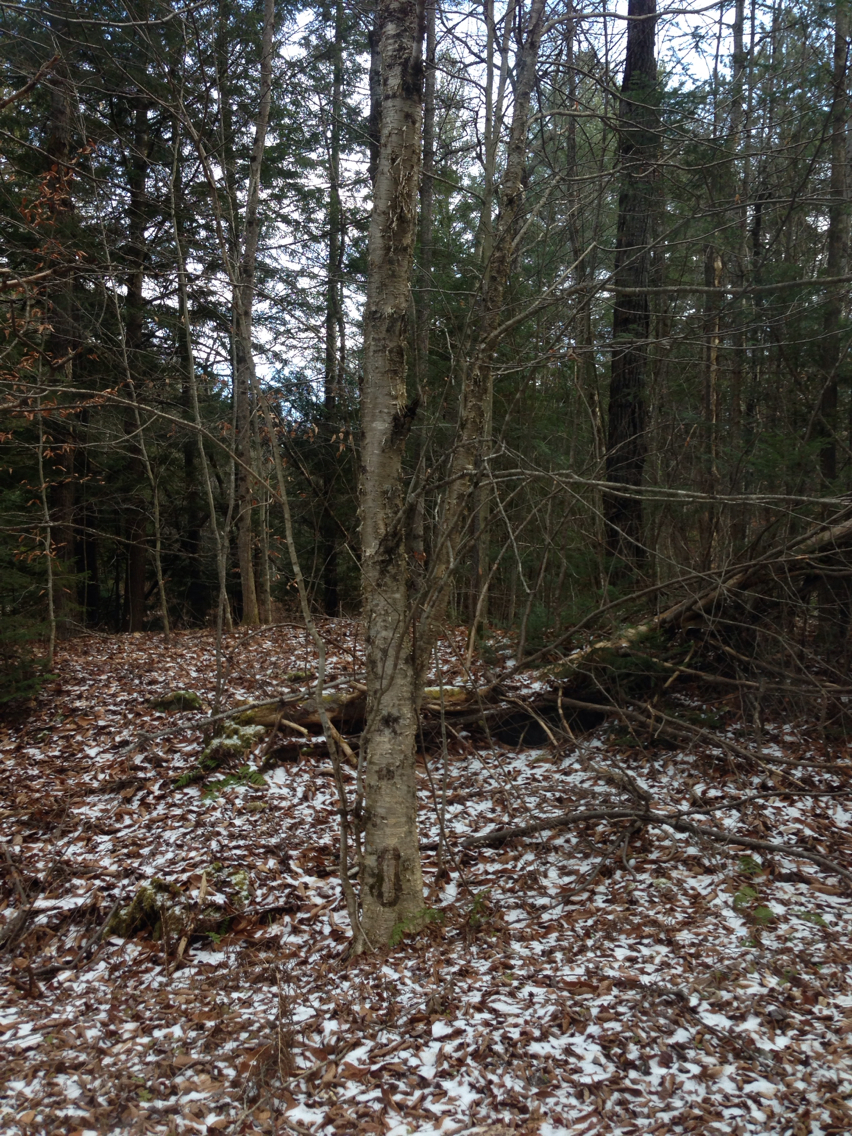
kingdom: Plantae
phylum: Tracheophyta
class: Magnoliopsida
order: Fagales
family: Betulaceae
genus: Betula
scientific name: Betula alleghaniensis
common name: Yellow birch
